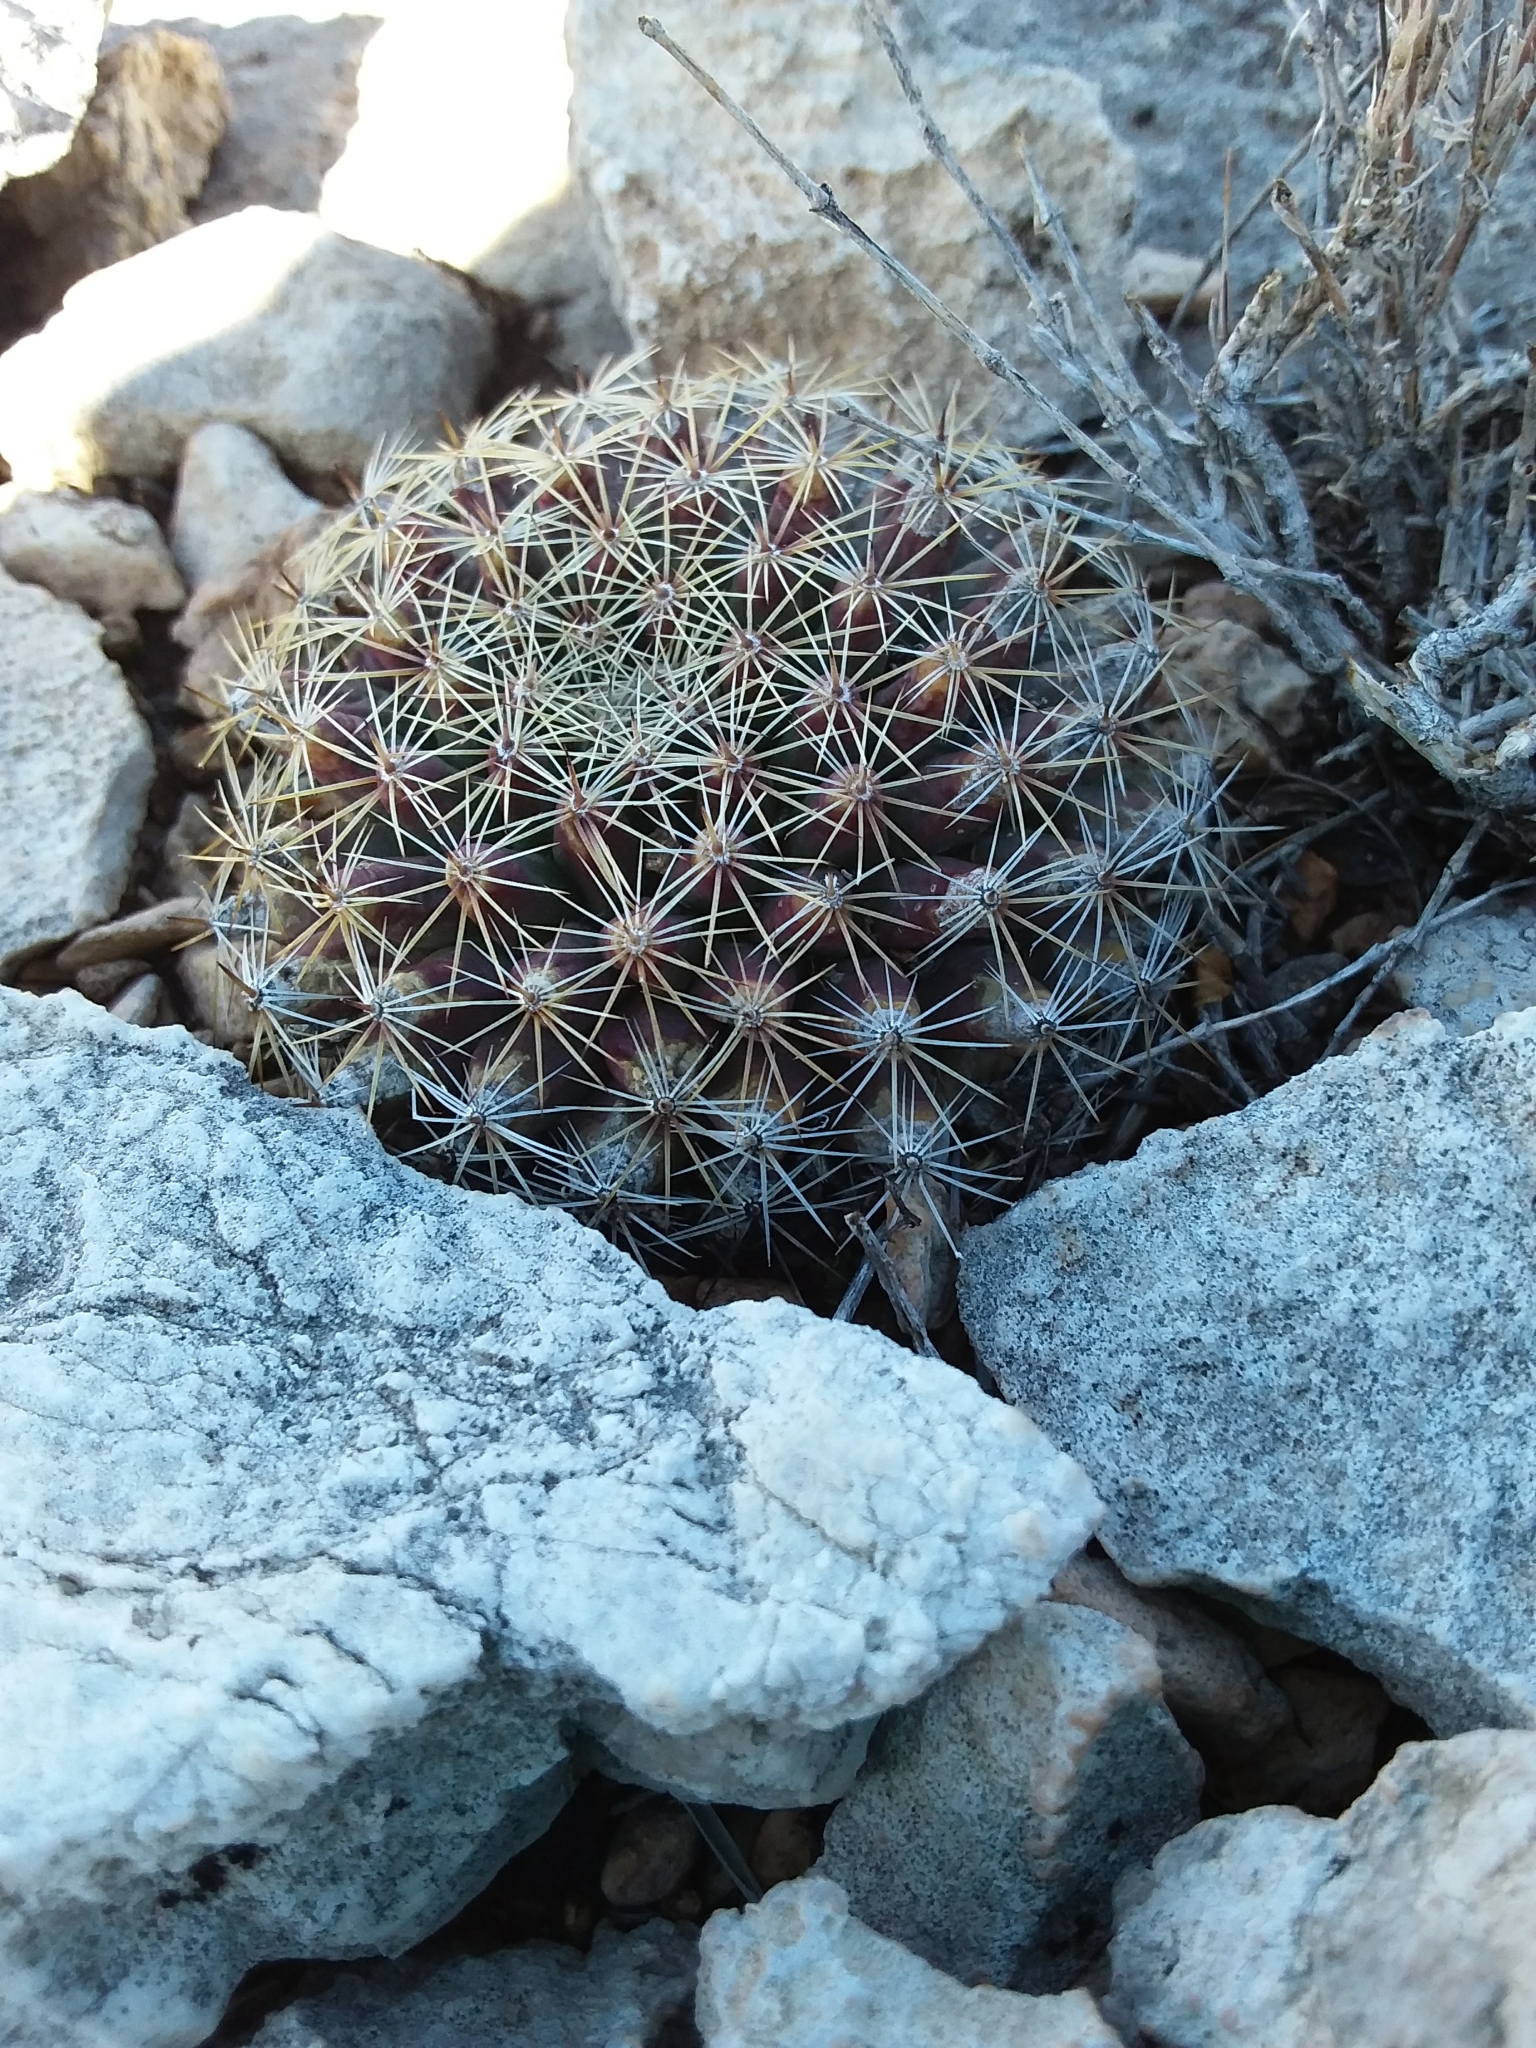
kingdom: Plantae
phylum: Tracheophyta
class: Magnoliopsida
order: Caryophyllales
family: Cactaceae
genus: Mammillaria
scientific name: Mammillaria heyderi
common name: Little nipple cactus
